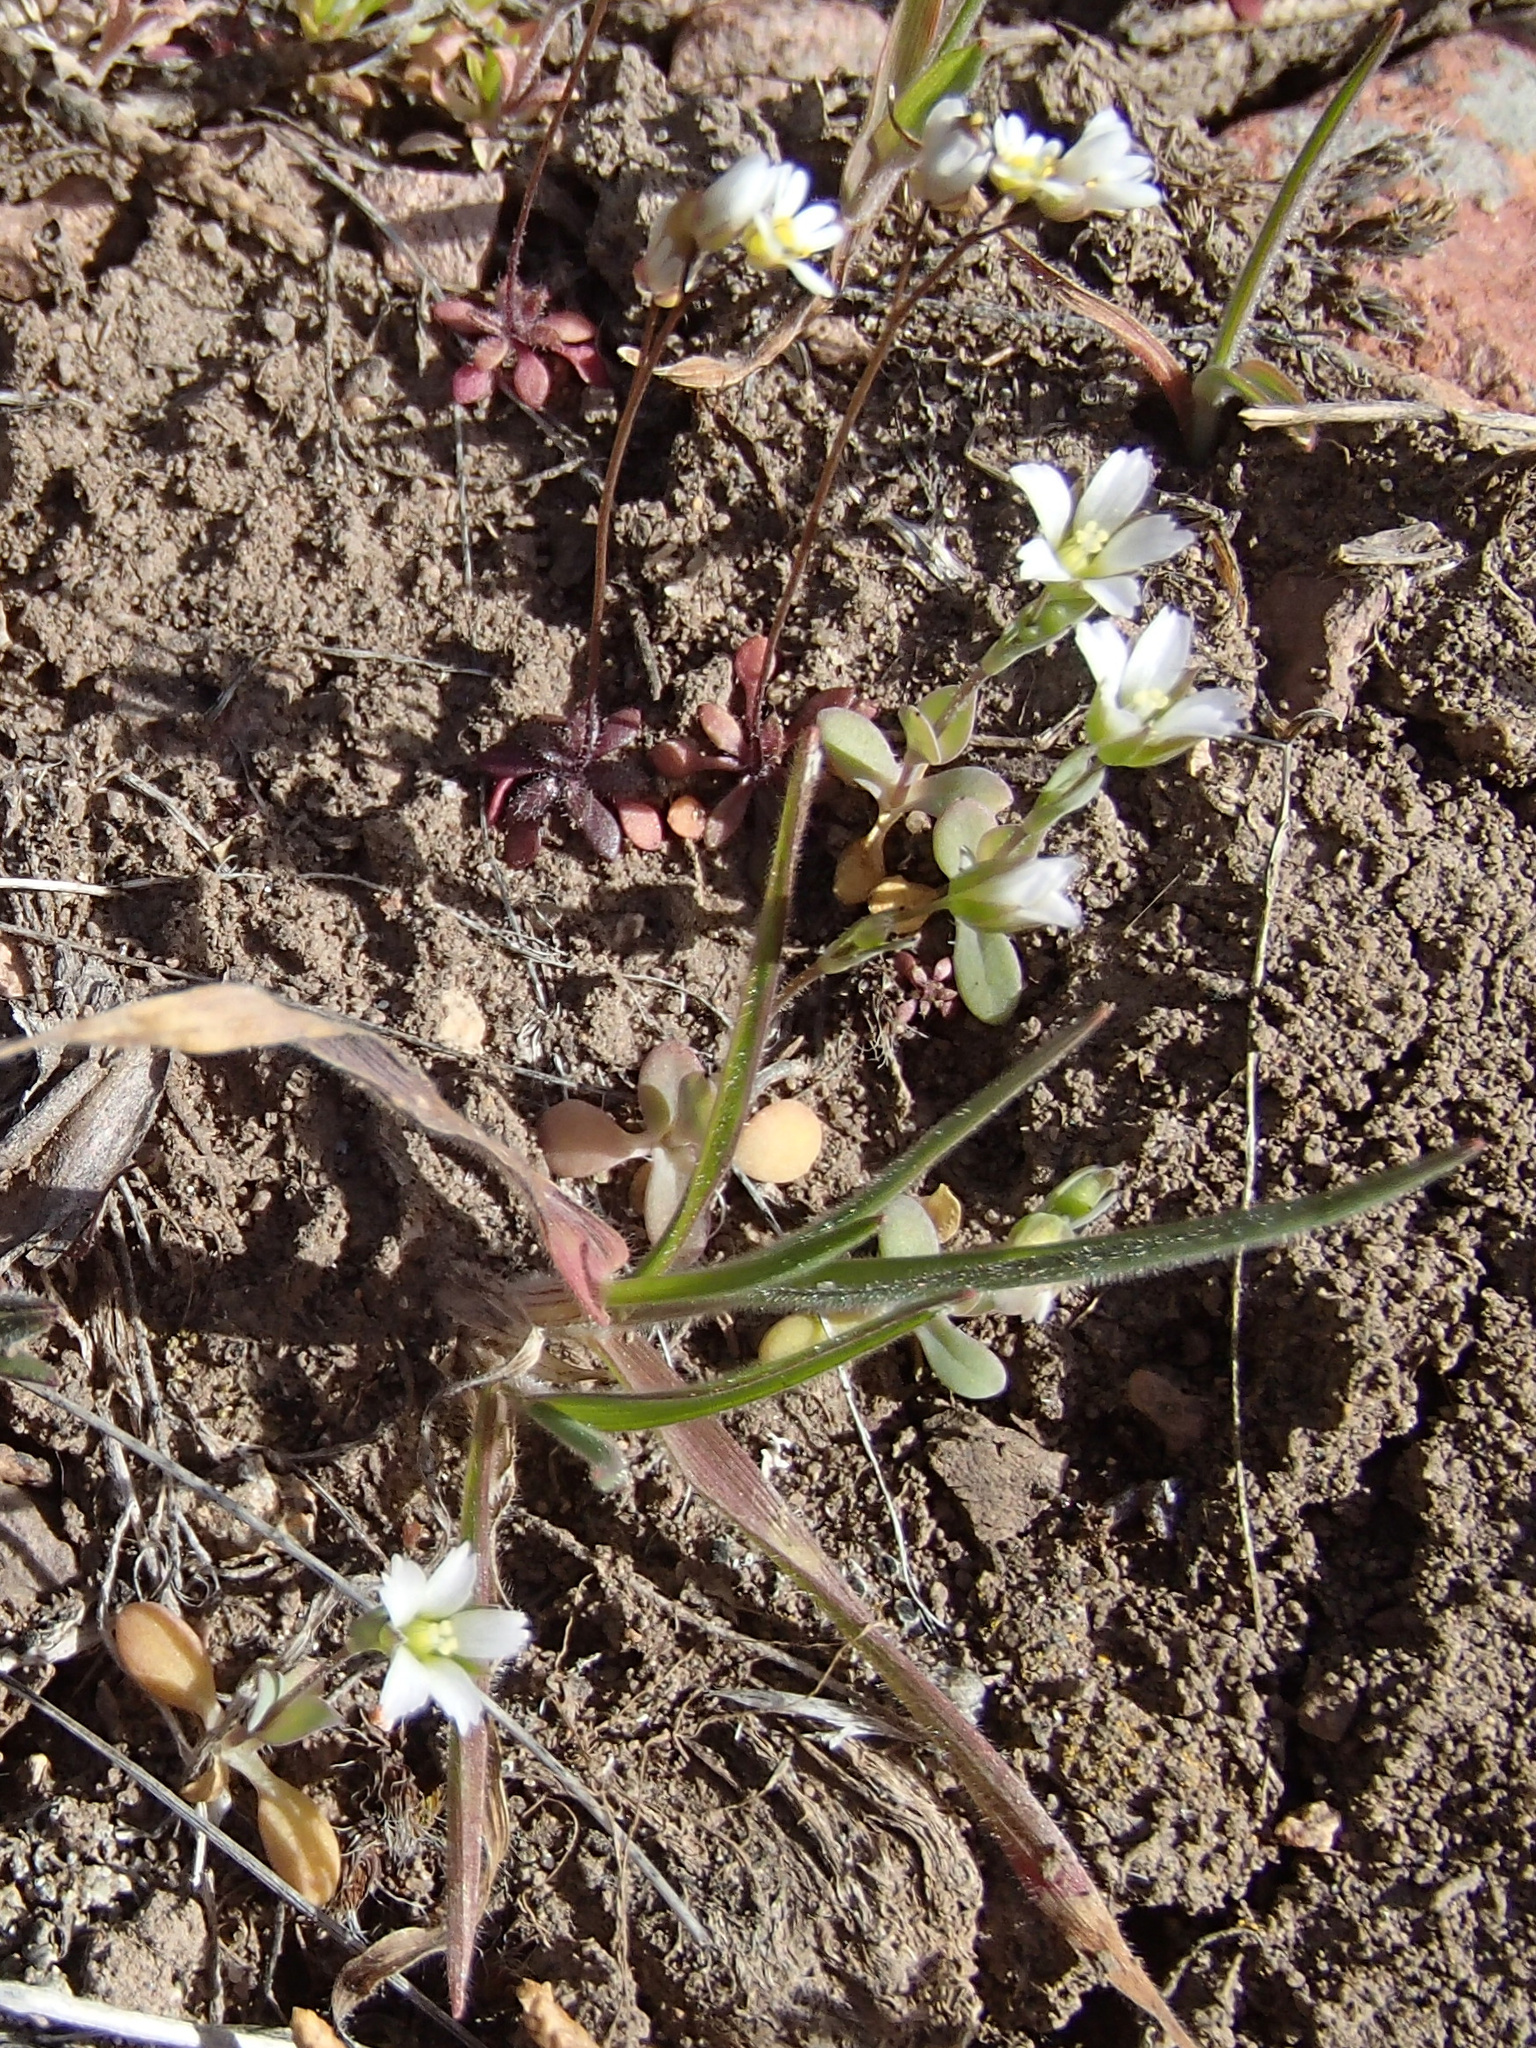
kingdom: Plantae
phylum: Tracheophyta
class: Magnoliopsida
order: Caryophyllales
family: Caryophyllaceae
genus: Holosteum
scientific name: Holosteum umbellatum
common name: Jagged chickweed
